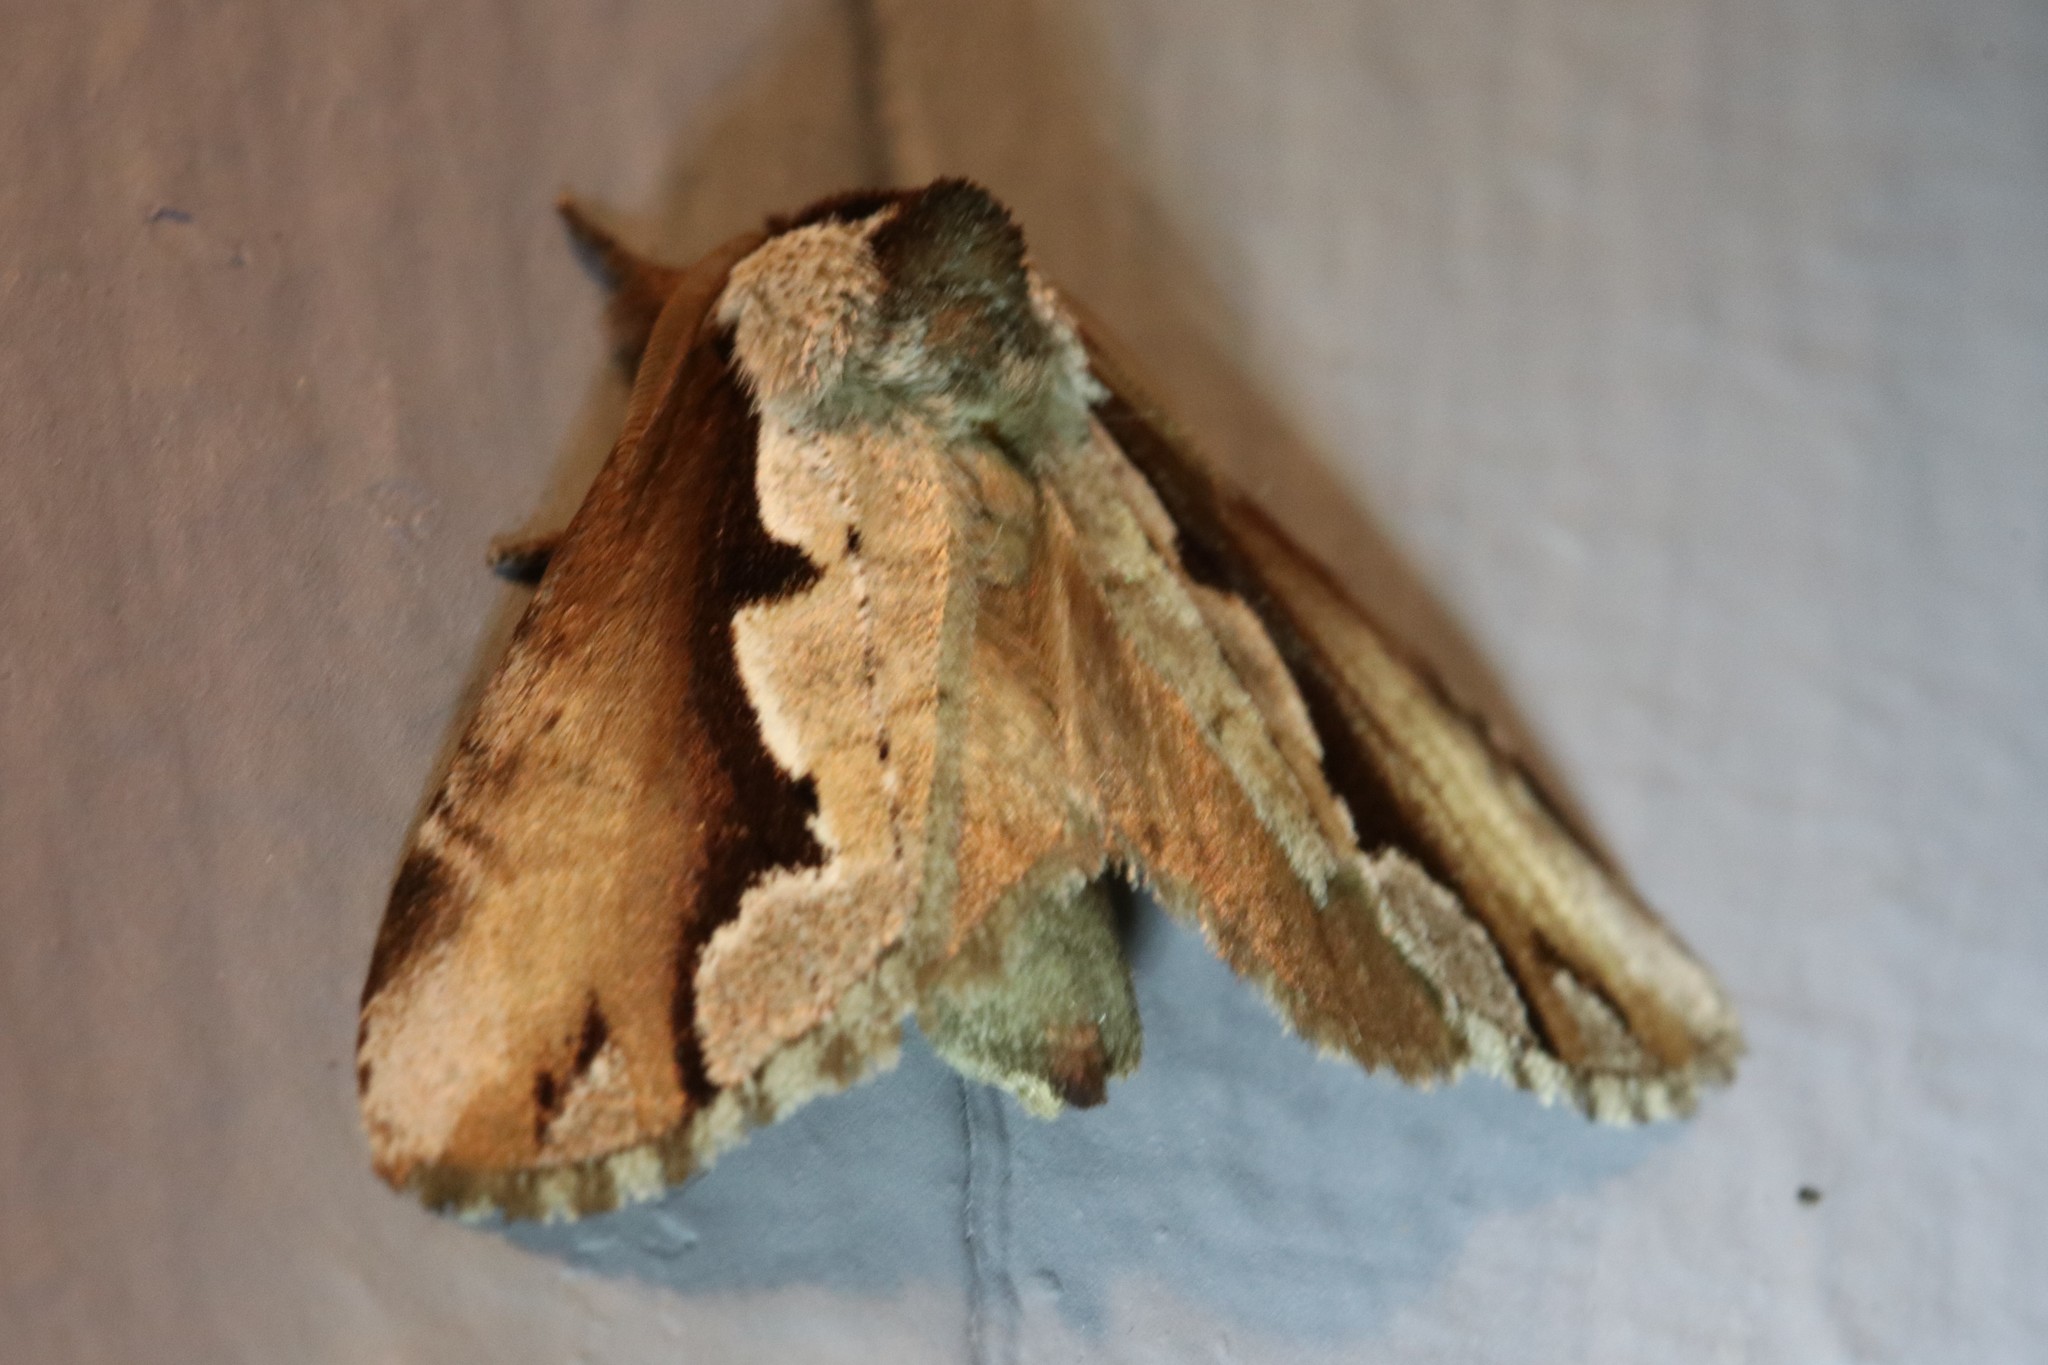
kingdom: Animalia
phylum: Arthropoda
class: Insecta
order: Lepidoptera
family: Notodontidae
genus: Nerice
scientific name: Nerice bidentata
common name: Double-toothed prominent
